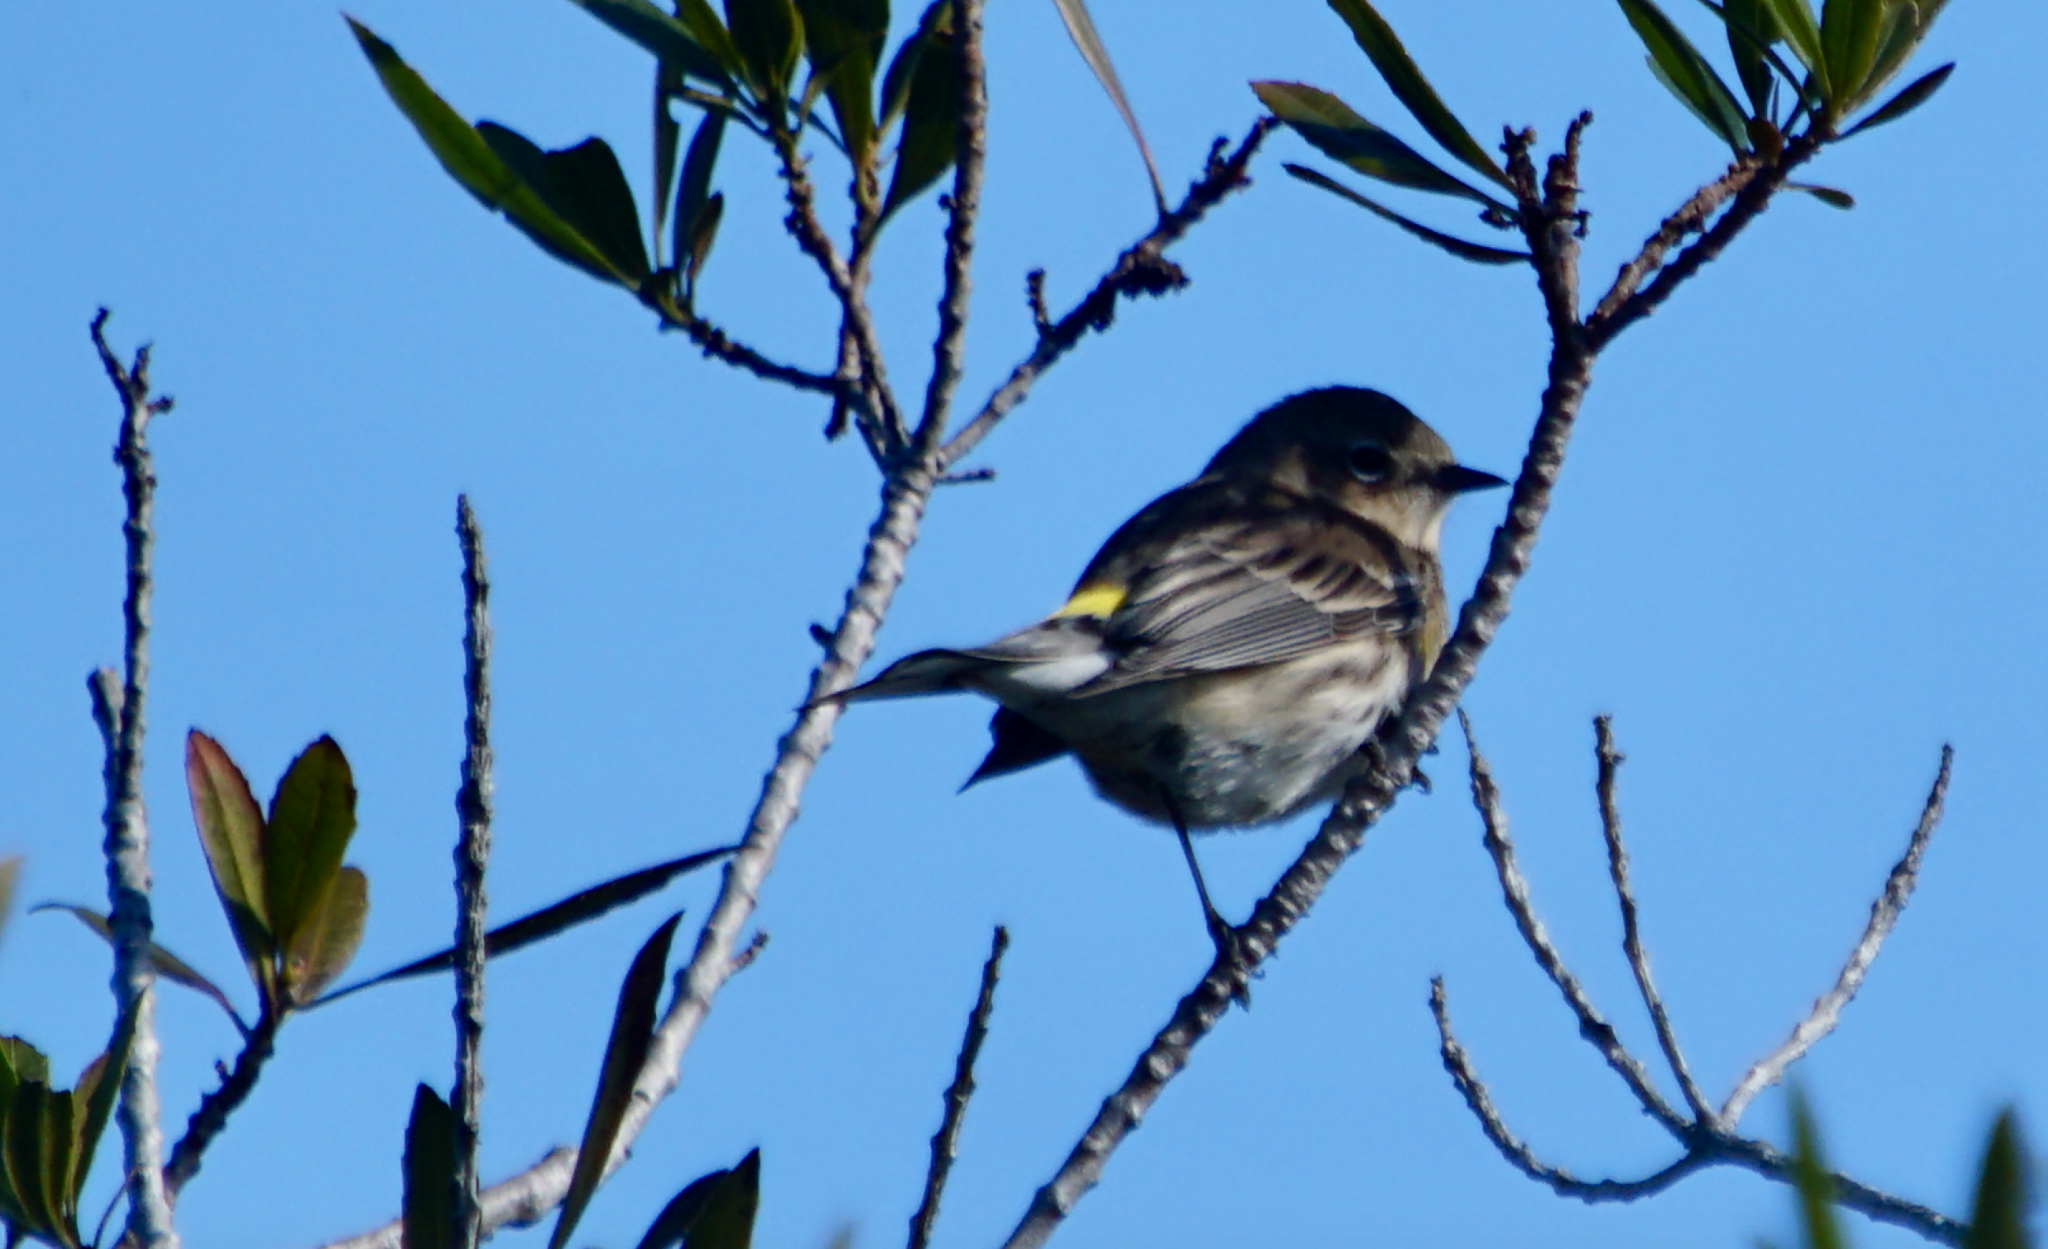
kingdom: Animalia
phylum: Chordata
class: Aves
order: Passeriformes
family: Parulidae
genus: Setophaga
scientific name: Setophaga coronata
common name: Myrtle warbler
